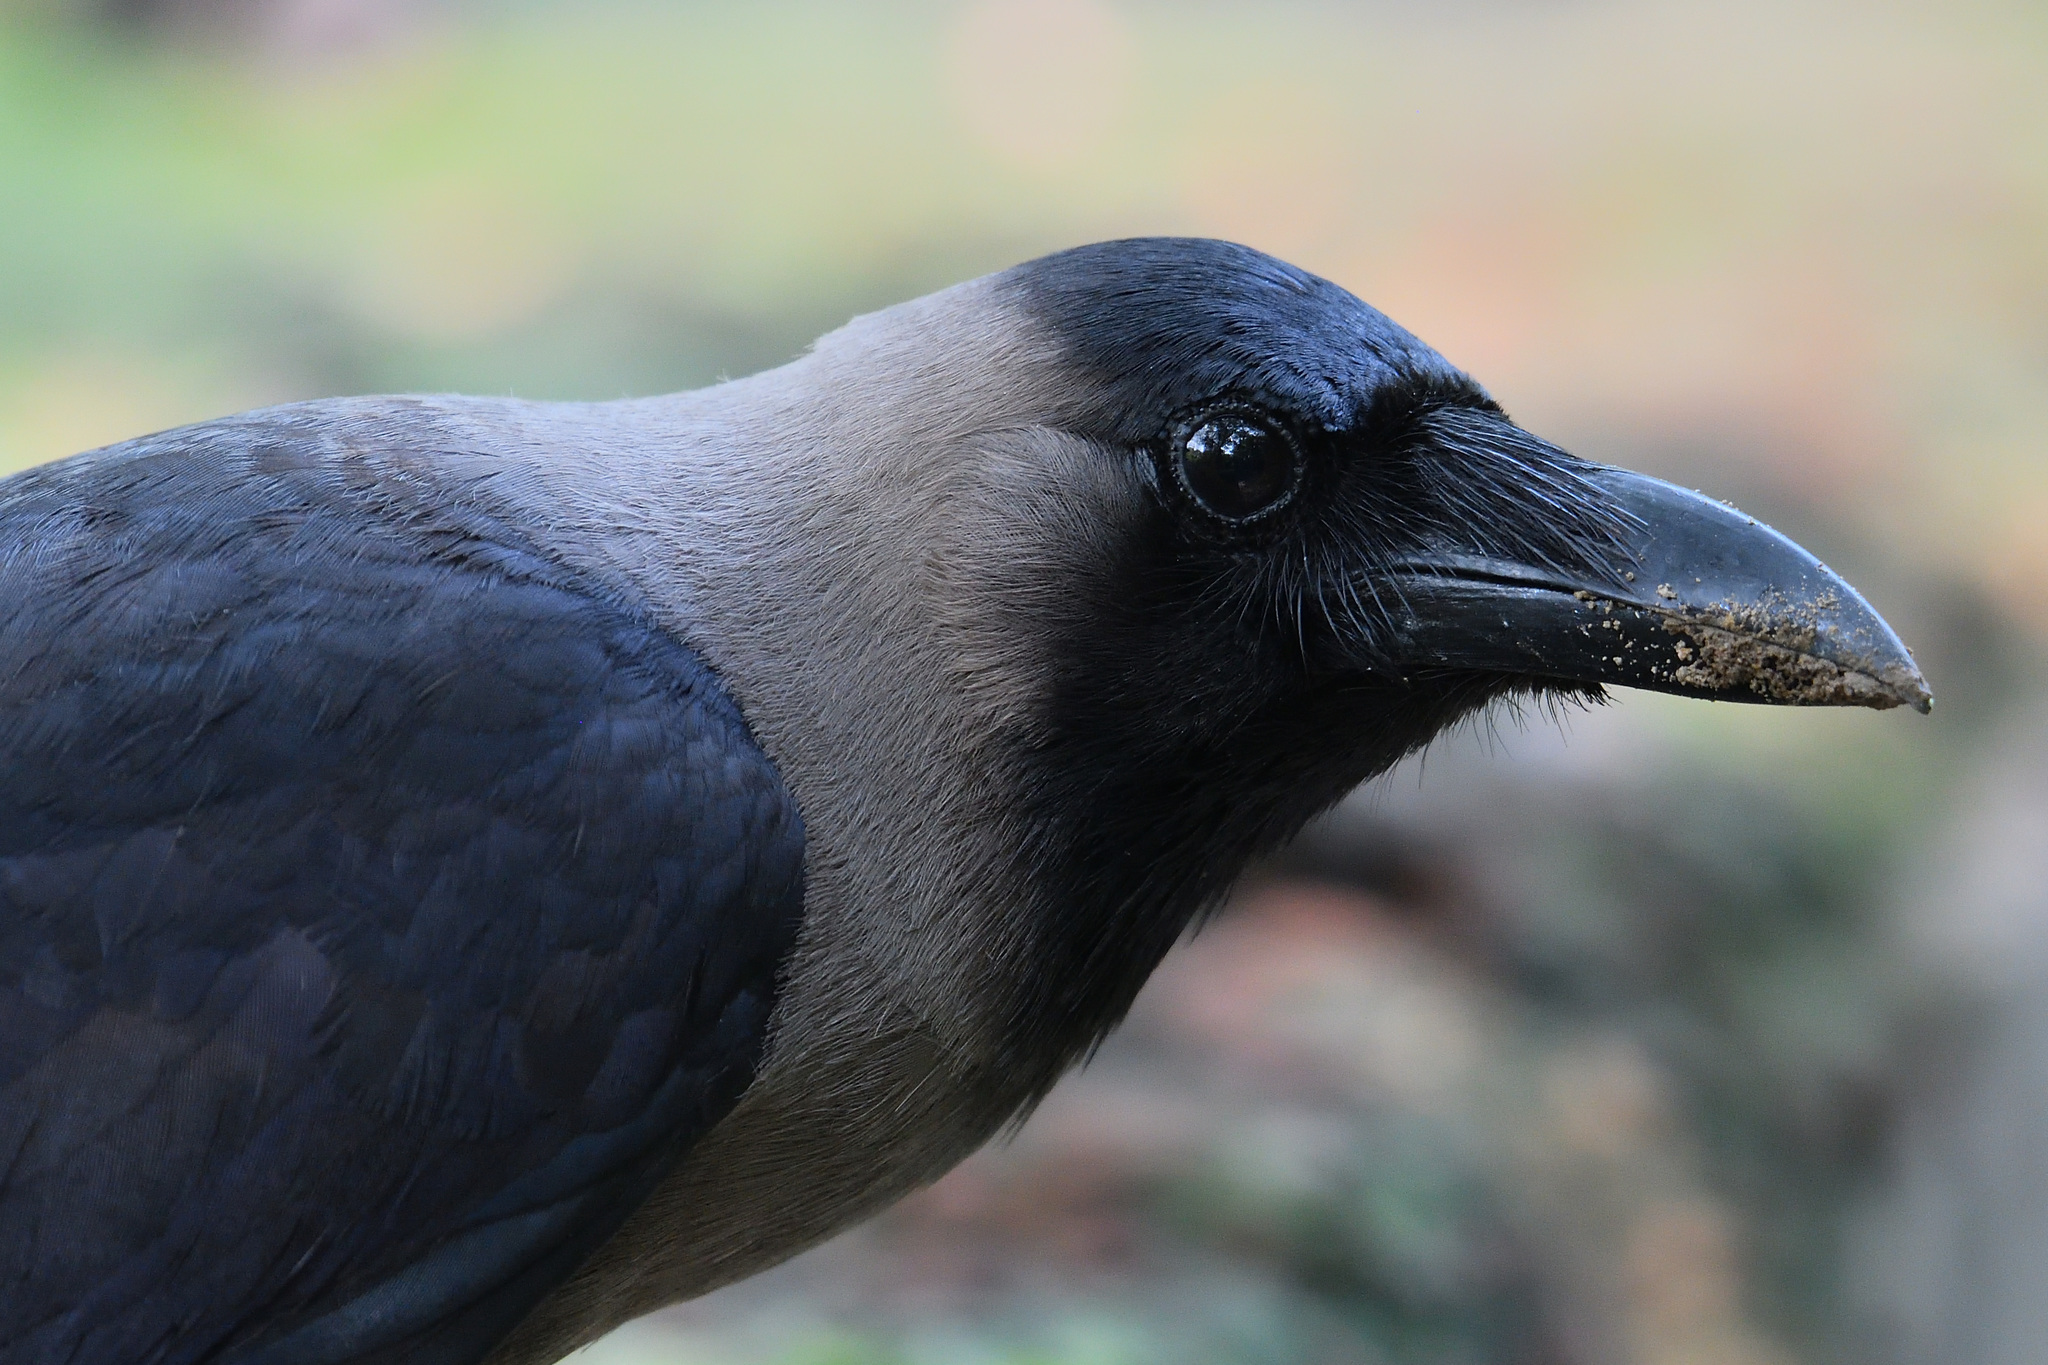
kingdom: Animalia
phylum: Chordata
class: Aves
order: Passeriformes
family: Corvidae
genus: Corvus
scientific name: Corvus splendens
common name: House crow
